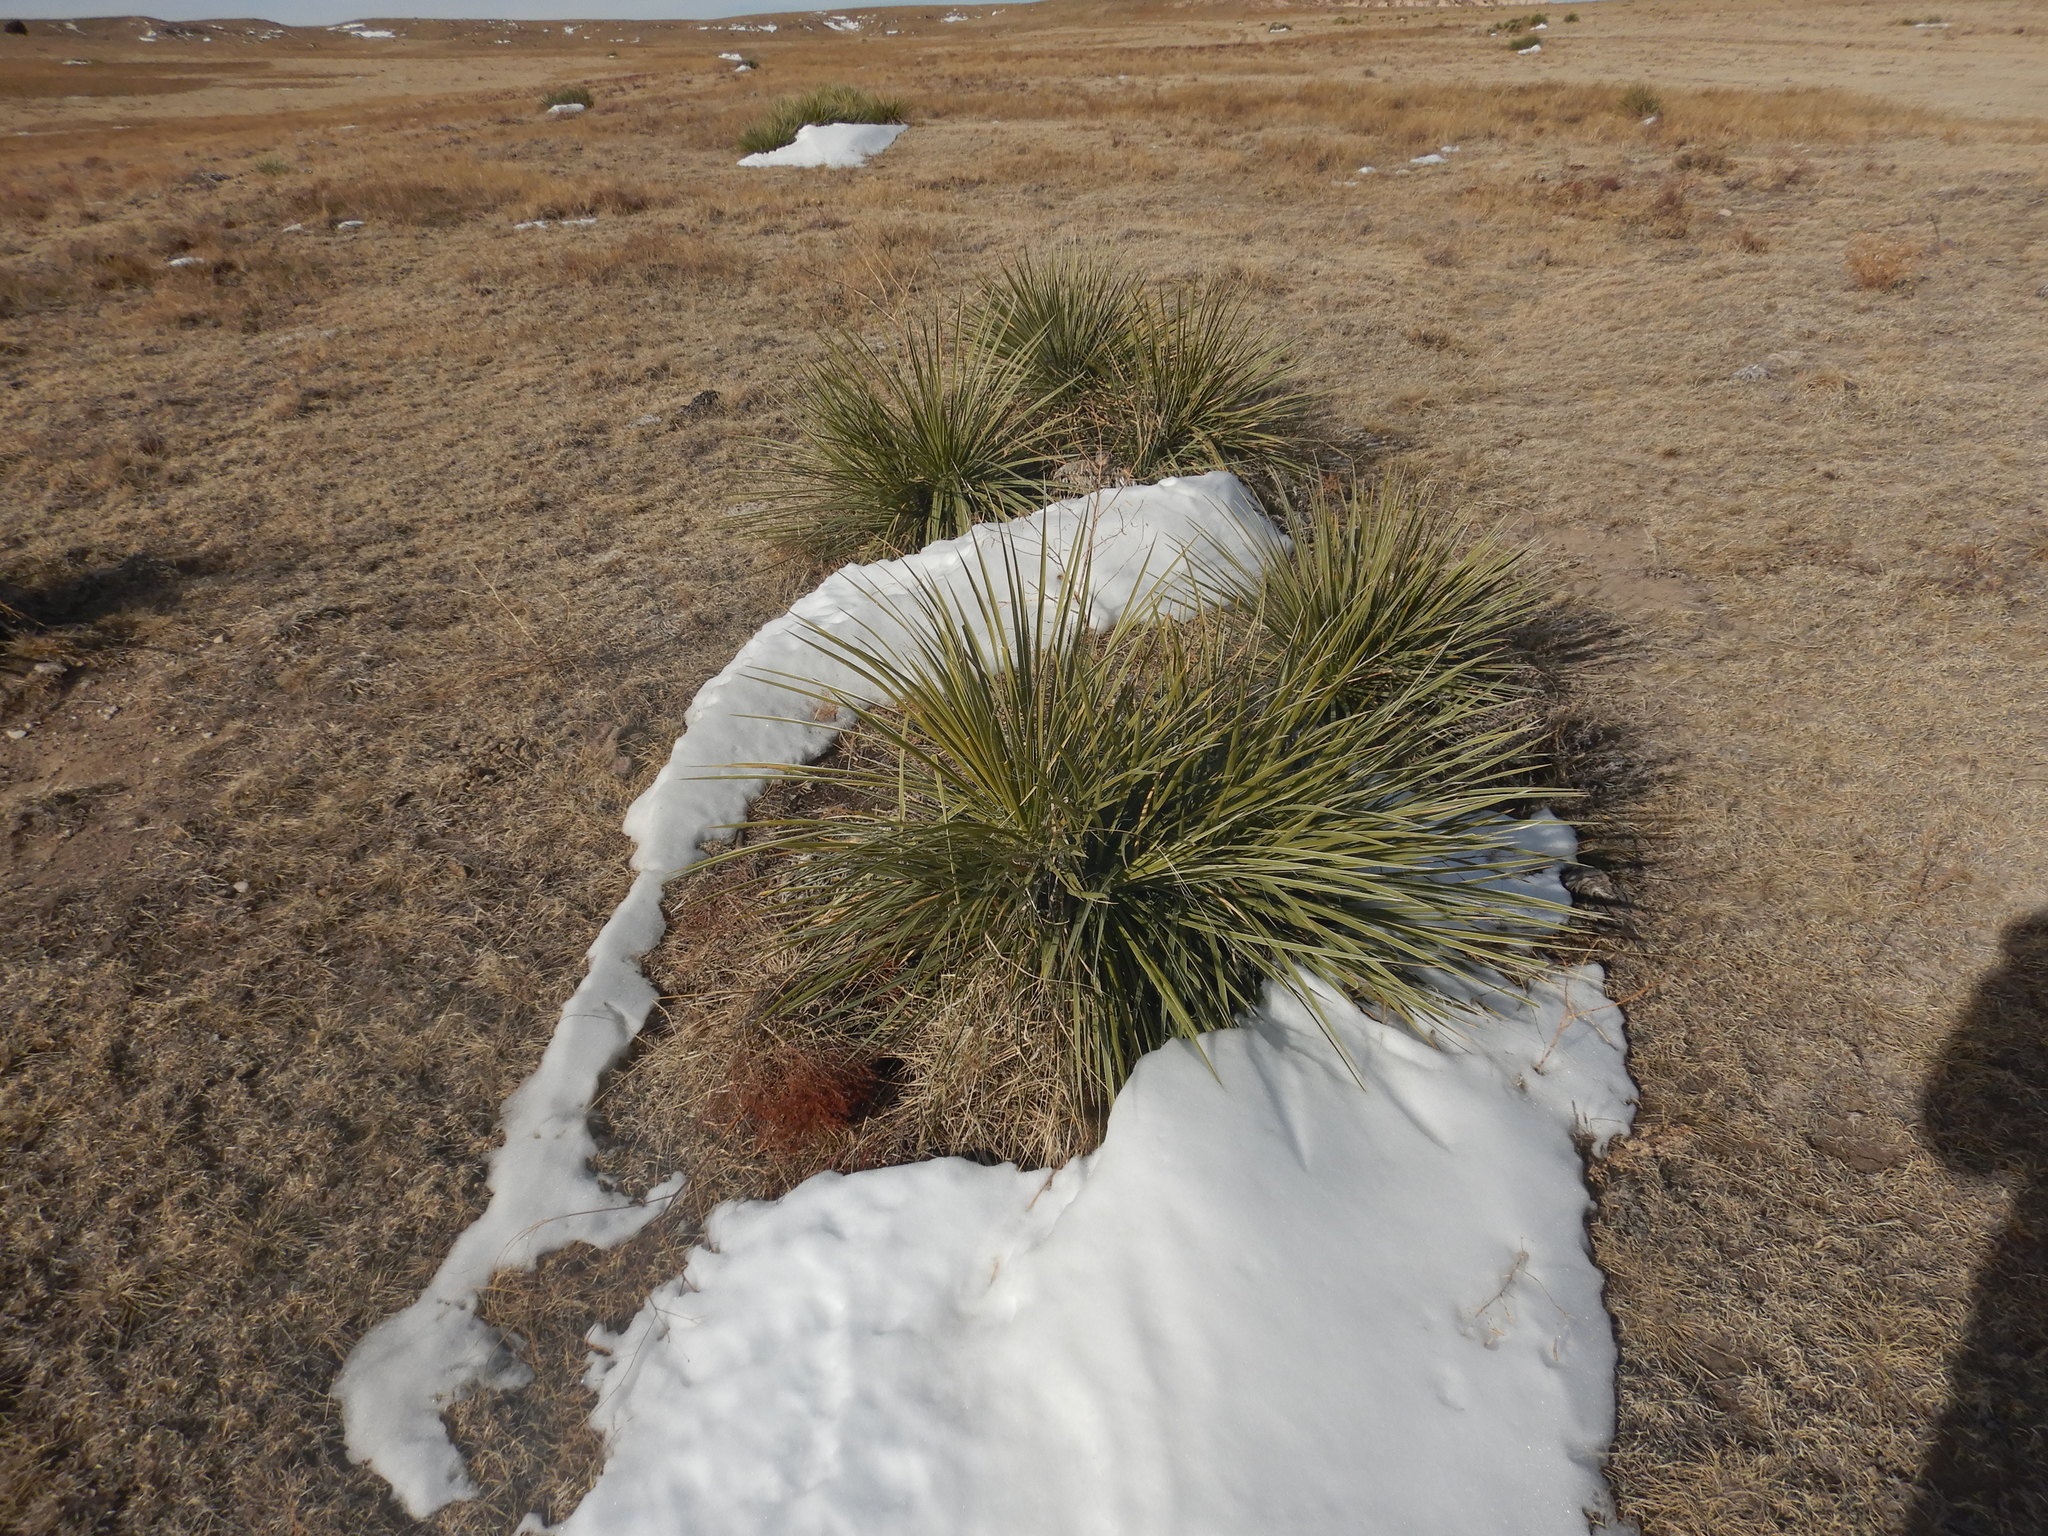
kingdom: Plantae
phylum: Tracheophyta
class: Liliopsida
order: Asparagales
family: Asparagaceae
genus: Yucca
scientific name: Yucca glauca
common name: Great plains yucca
